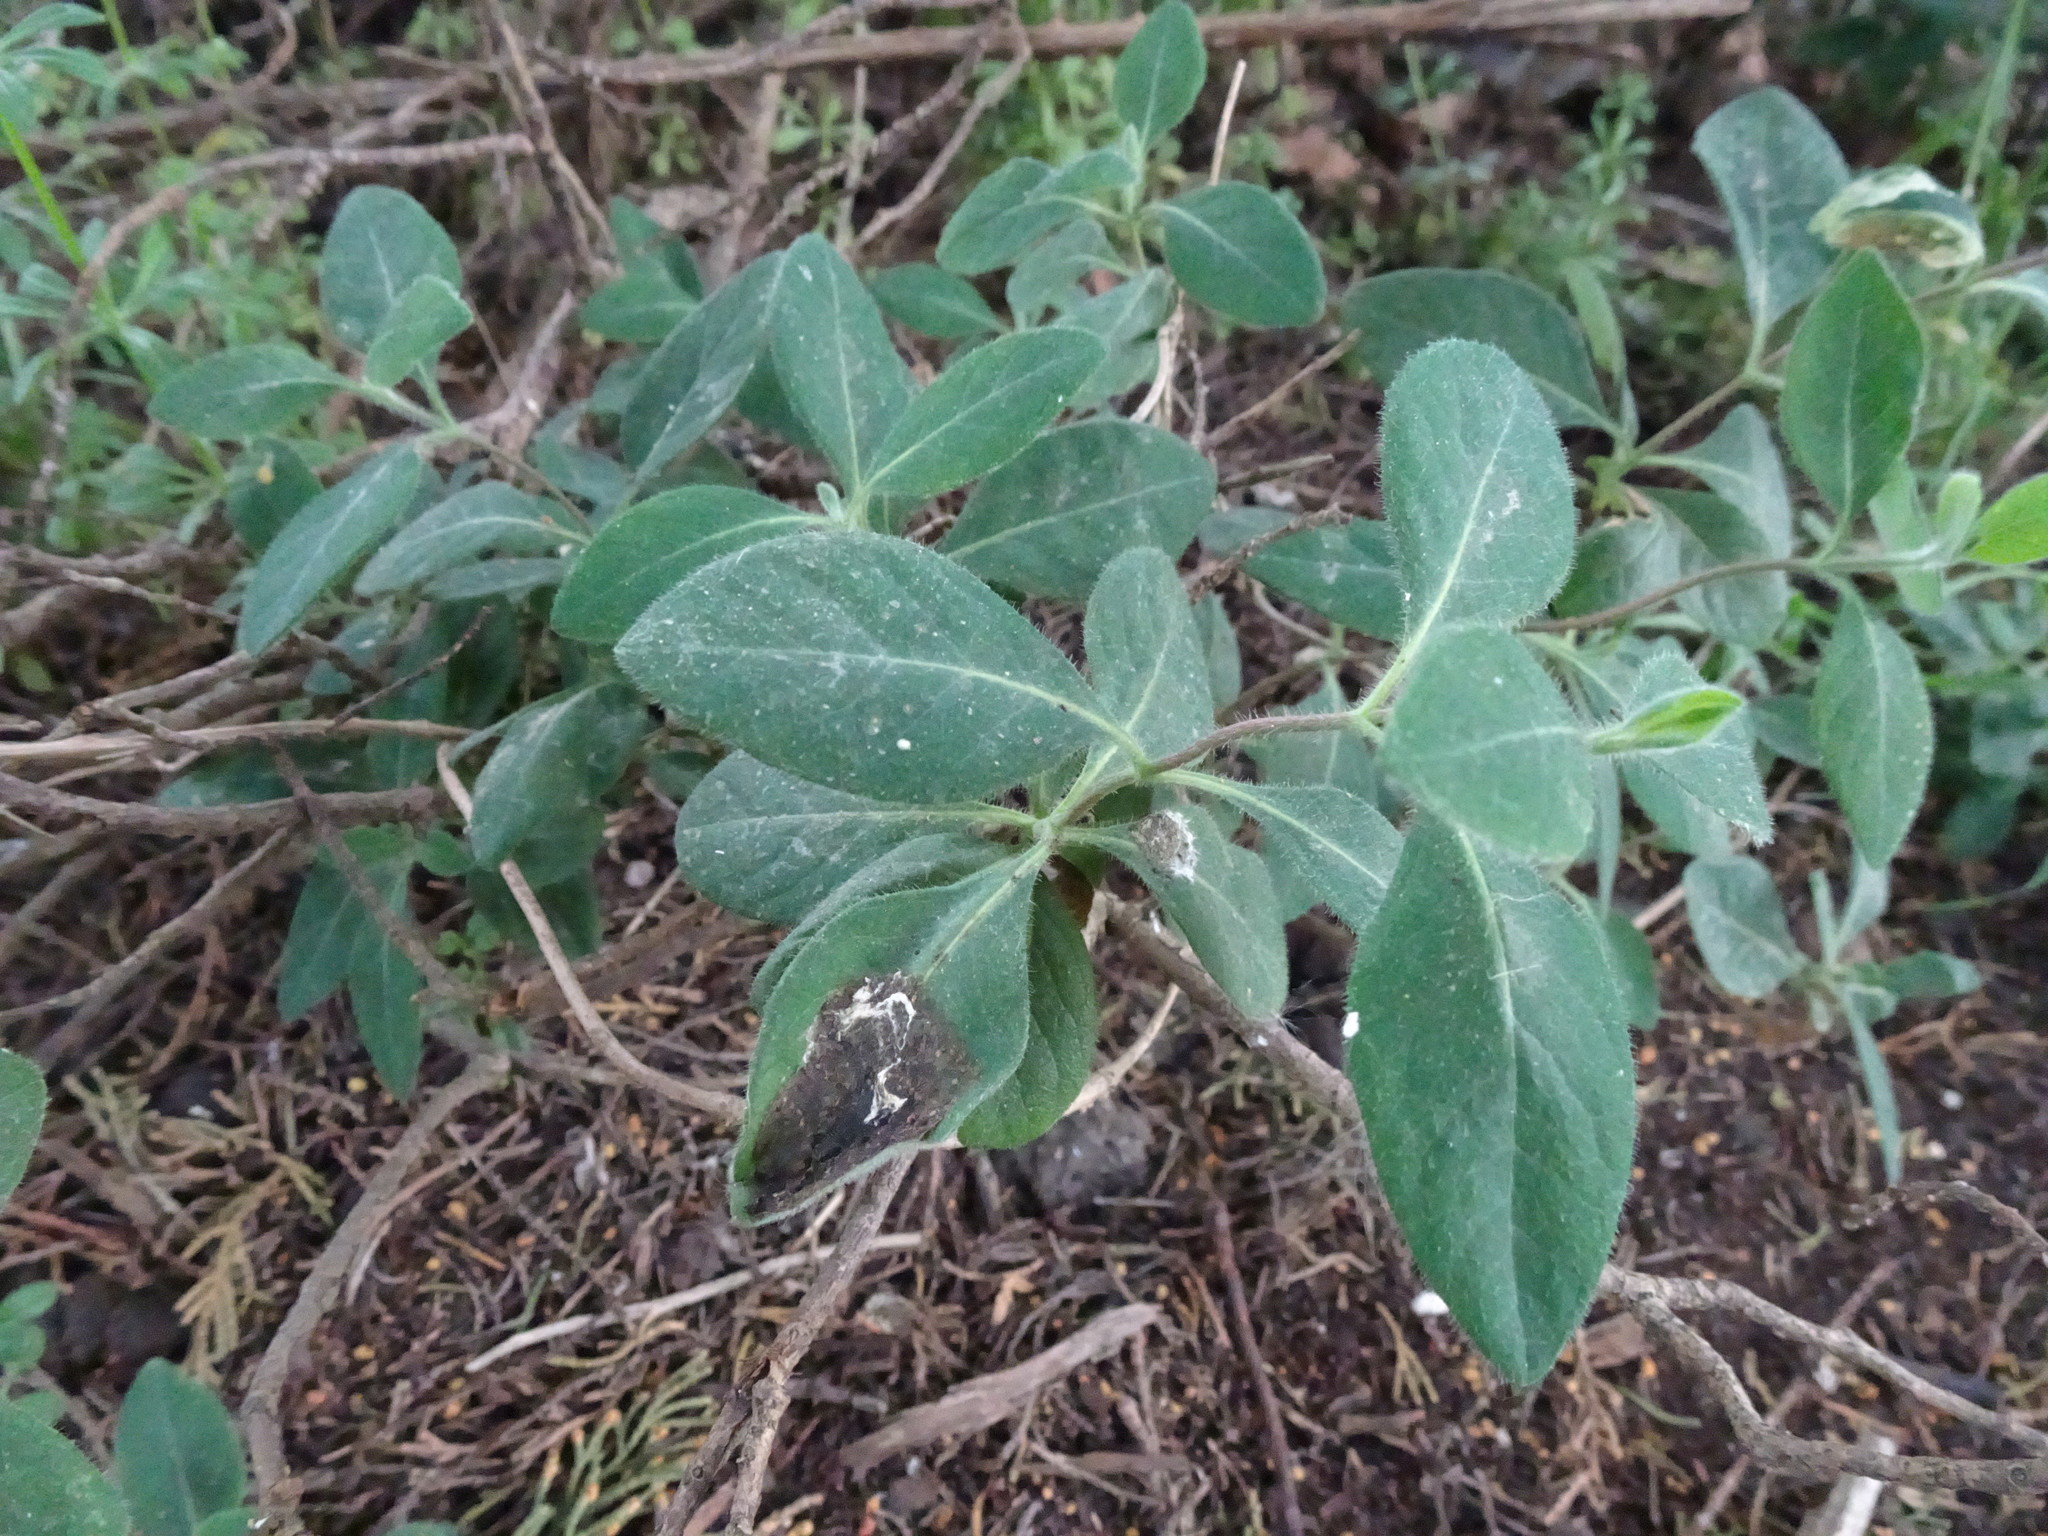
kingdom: Plantae
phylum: Tracheophyta
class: Magnoliopsida
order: Dipsacales
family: Caprifoliaceae
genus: Lonicera
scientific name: Lonicera periclymenum
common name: European honeysuckle
